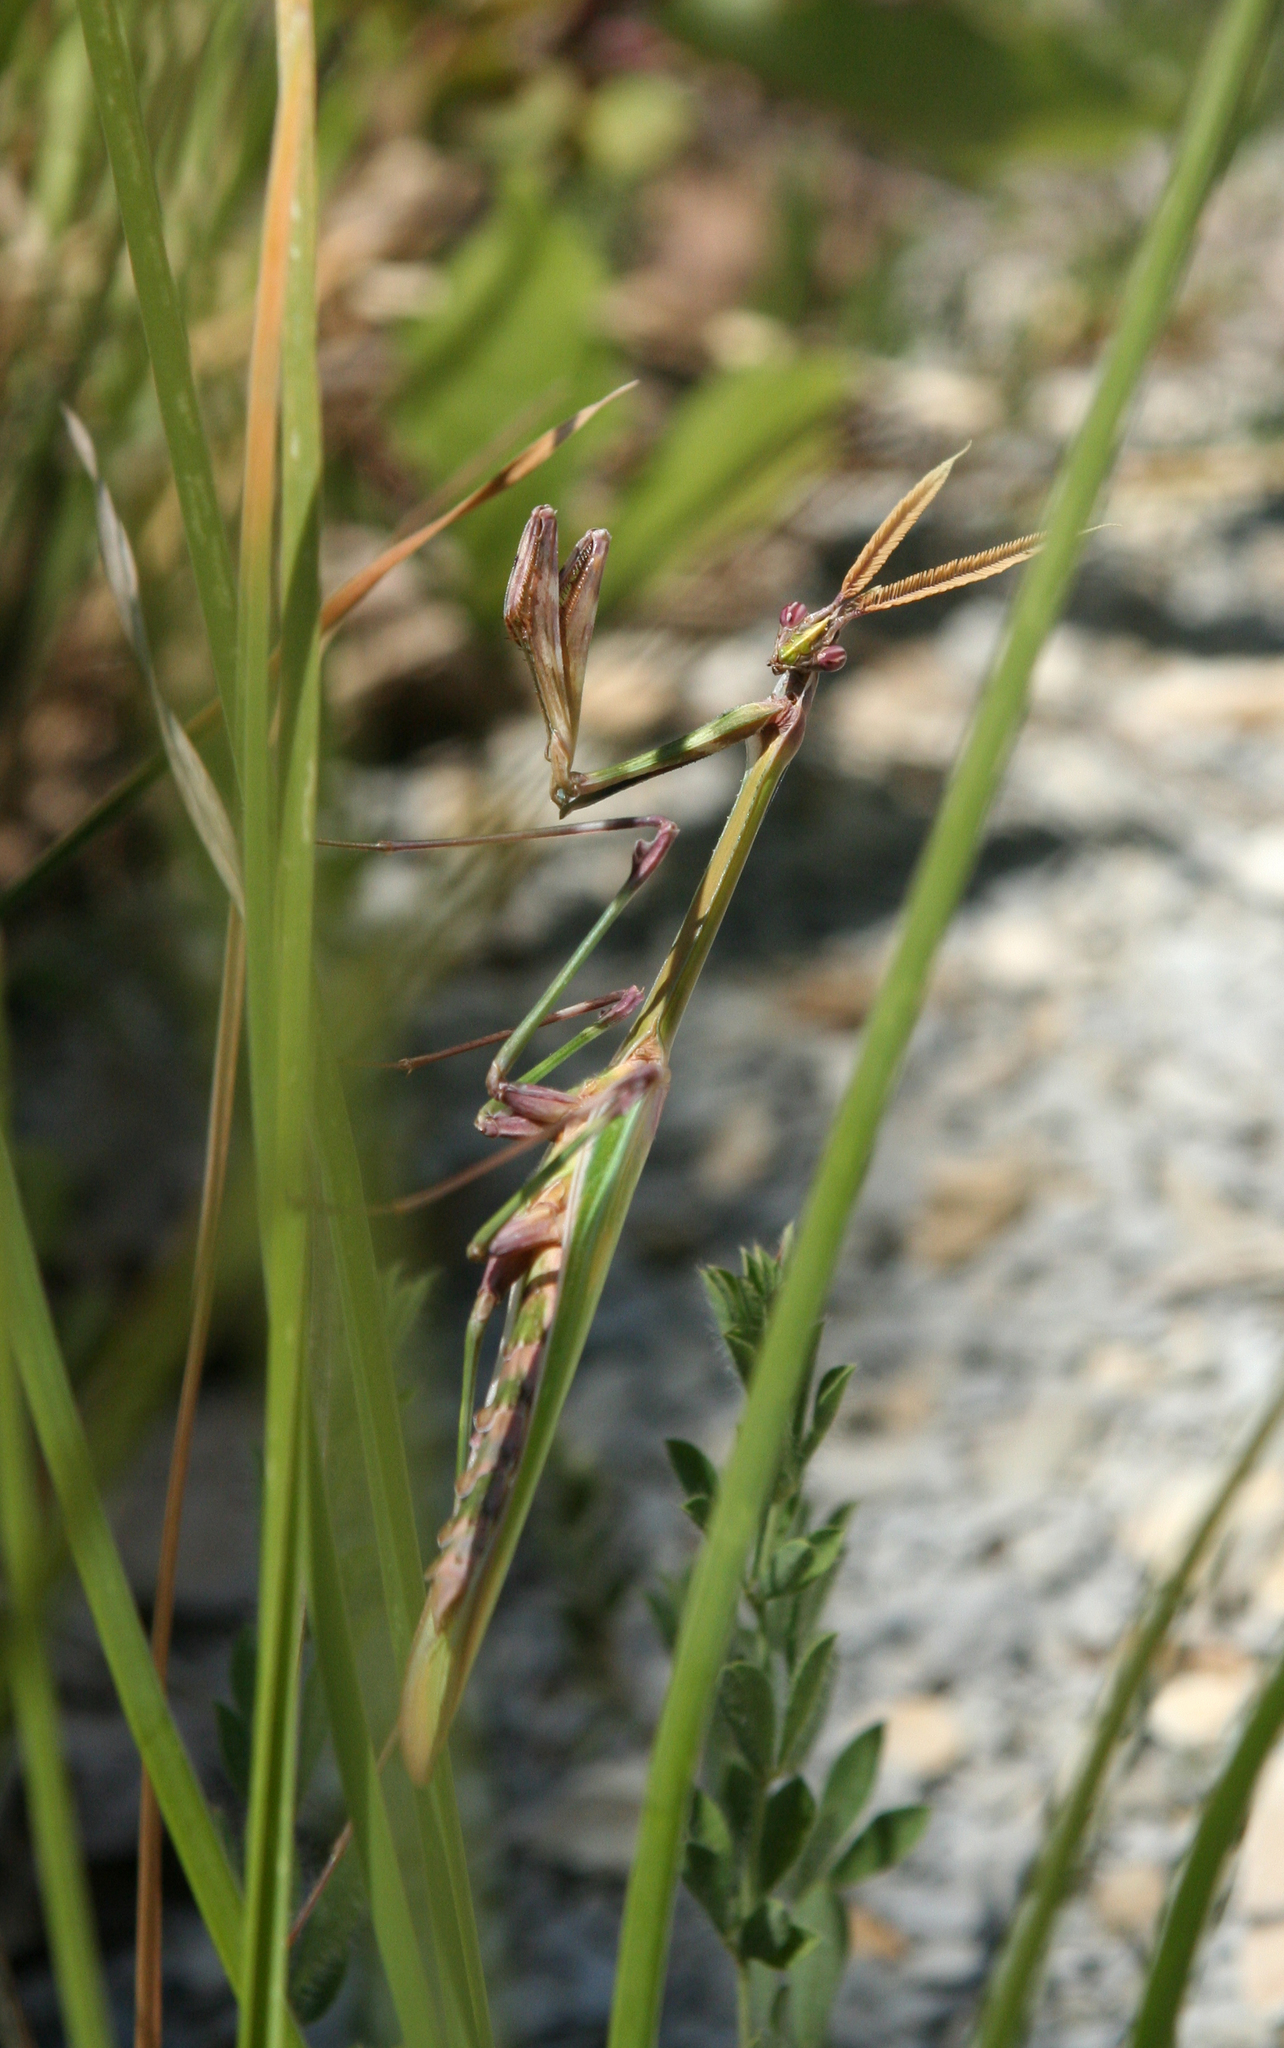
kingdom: Animalia
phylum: Arthropoda
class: Insecta
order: Mantodea
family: Empusidae
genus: Empusa
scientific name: Empusa pennicornis
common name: Conehead mantis
